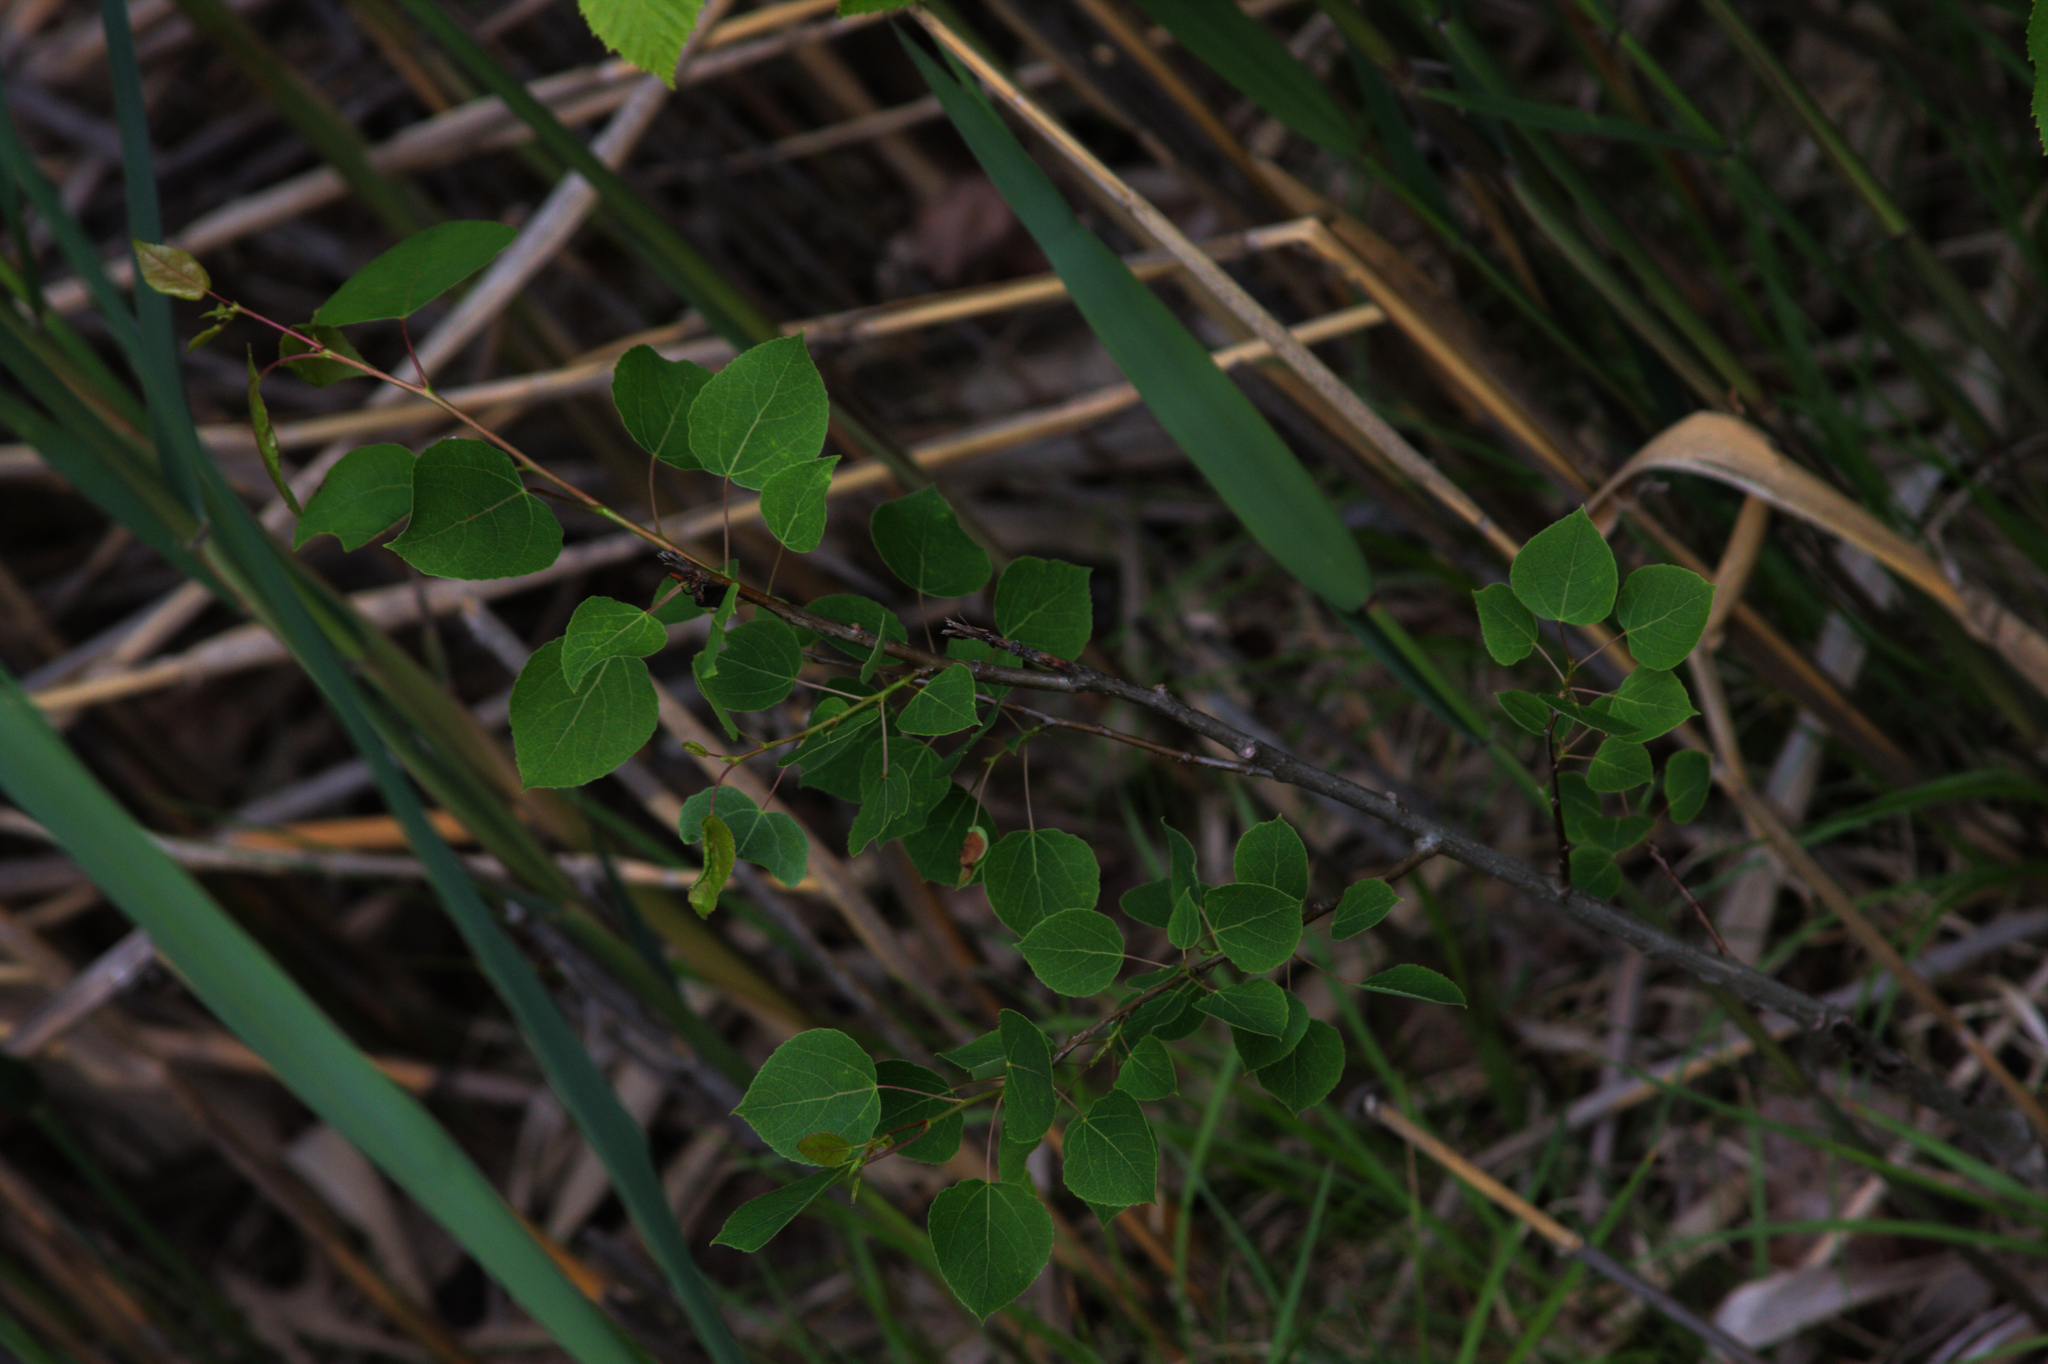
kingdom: Plantae
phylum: Tracheophyta
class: Magnoliopsida
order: Malpighiales
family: Salicaceae
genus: Populus
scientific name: Populus tremuloides
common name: Quaking aspen
